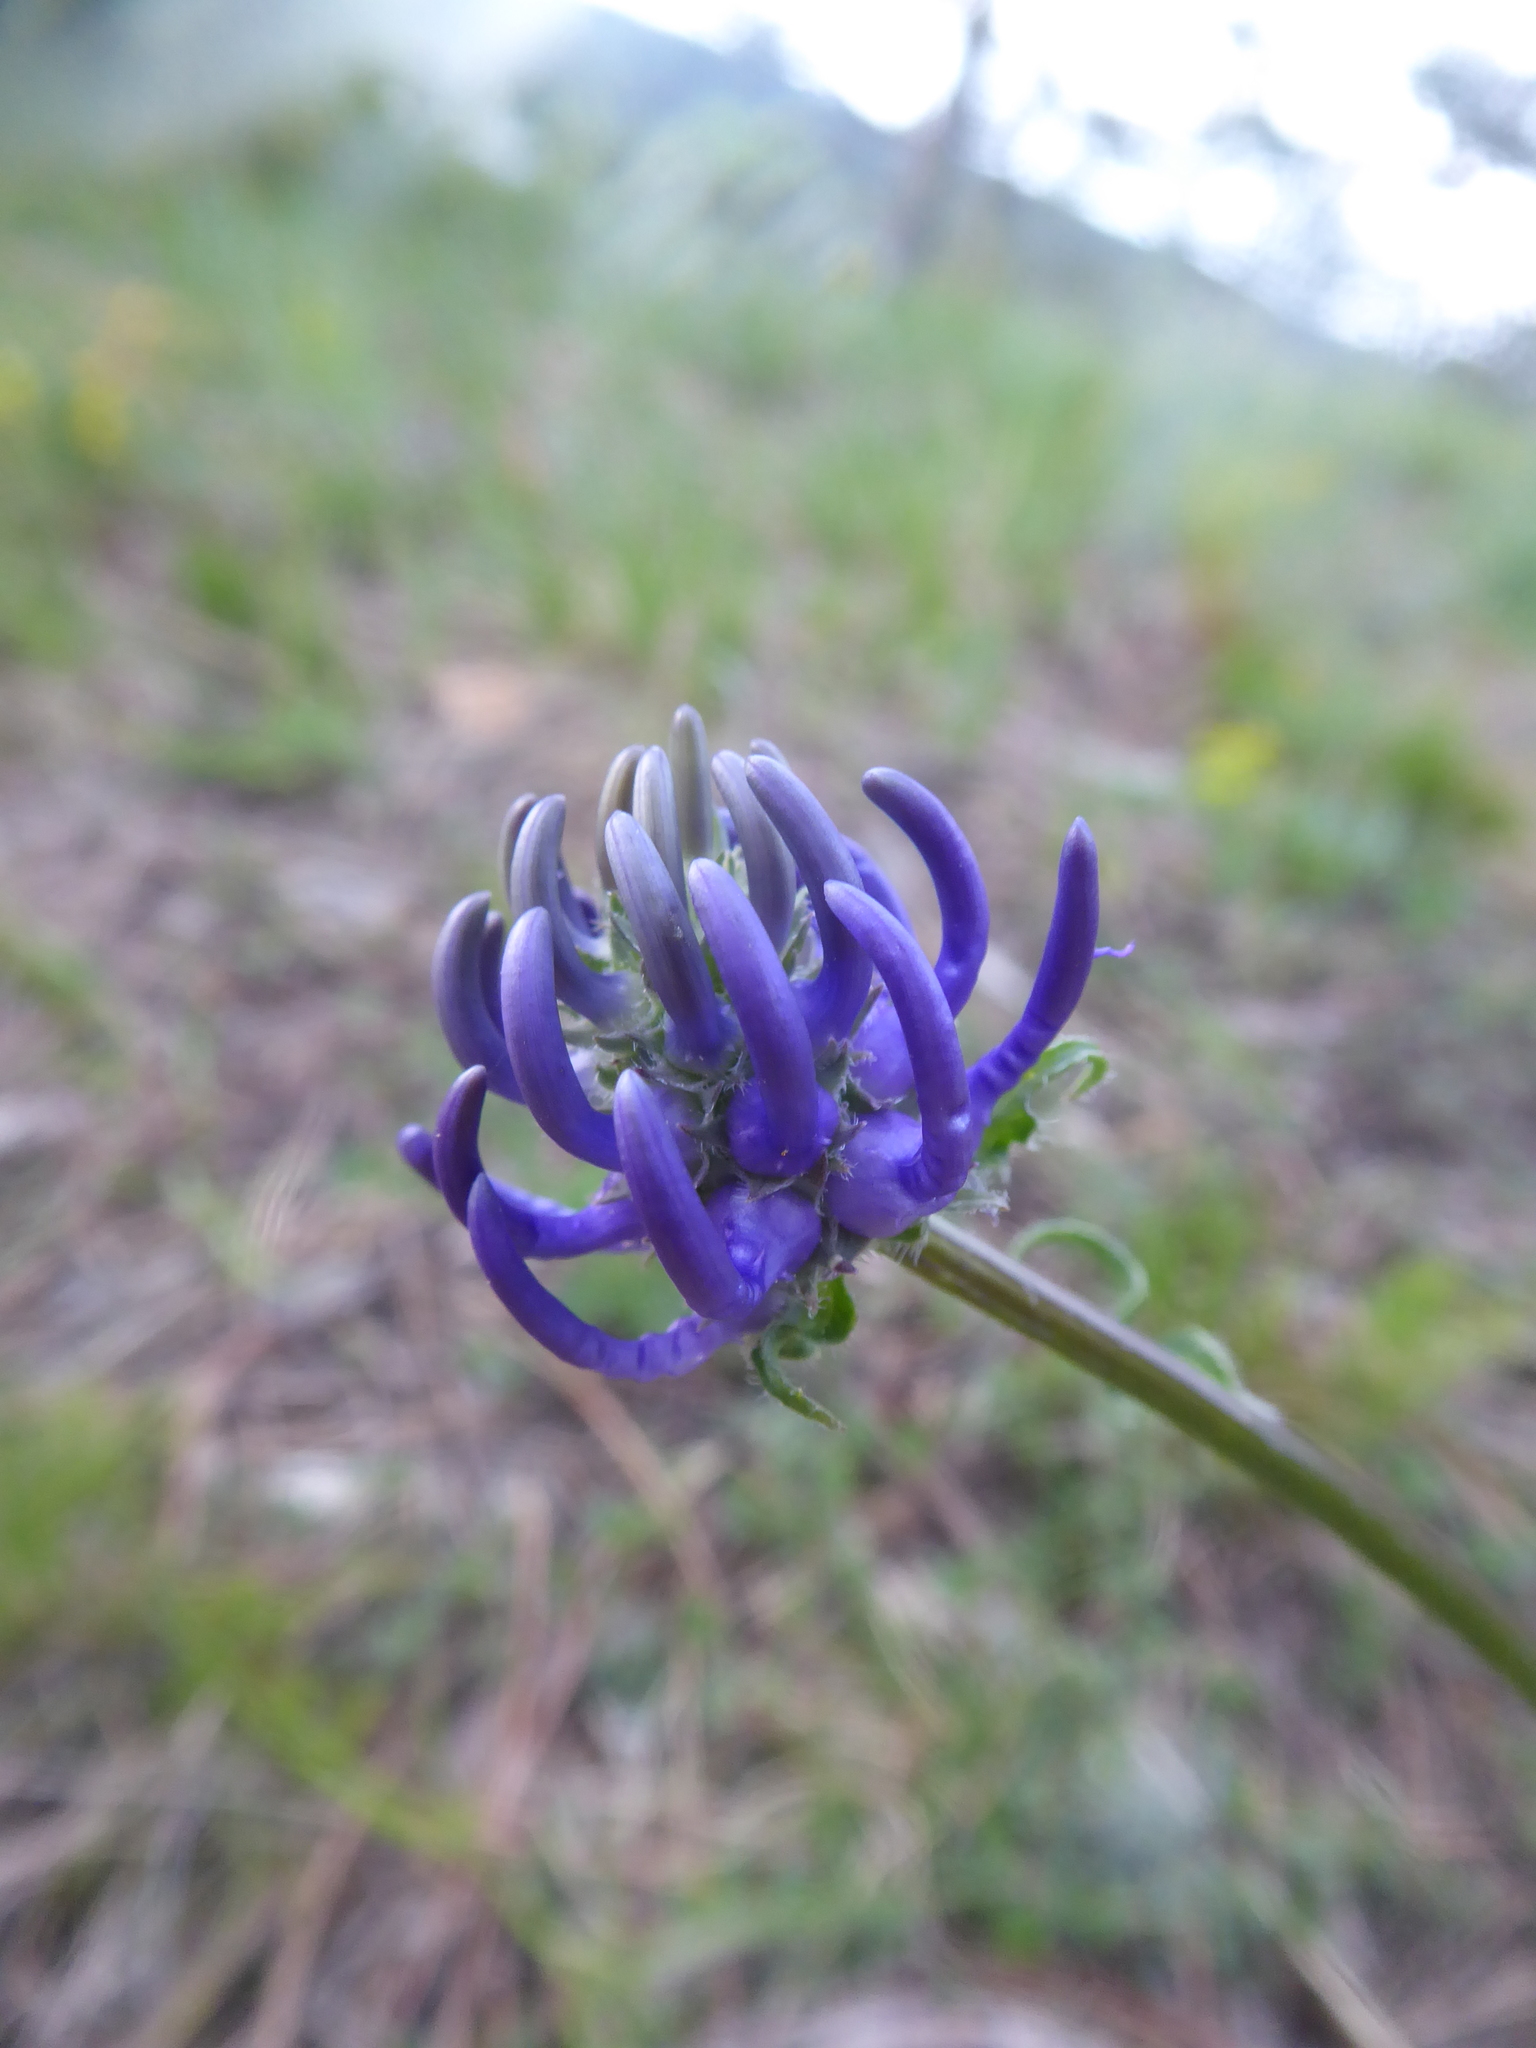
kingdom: Plantae
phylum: Tracheophyta
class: Magnoliopsida
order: Asterales
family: Campanulaceae
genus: Phyteuma
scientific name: Phyteuma orbiculare
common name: Round-headed rampion
